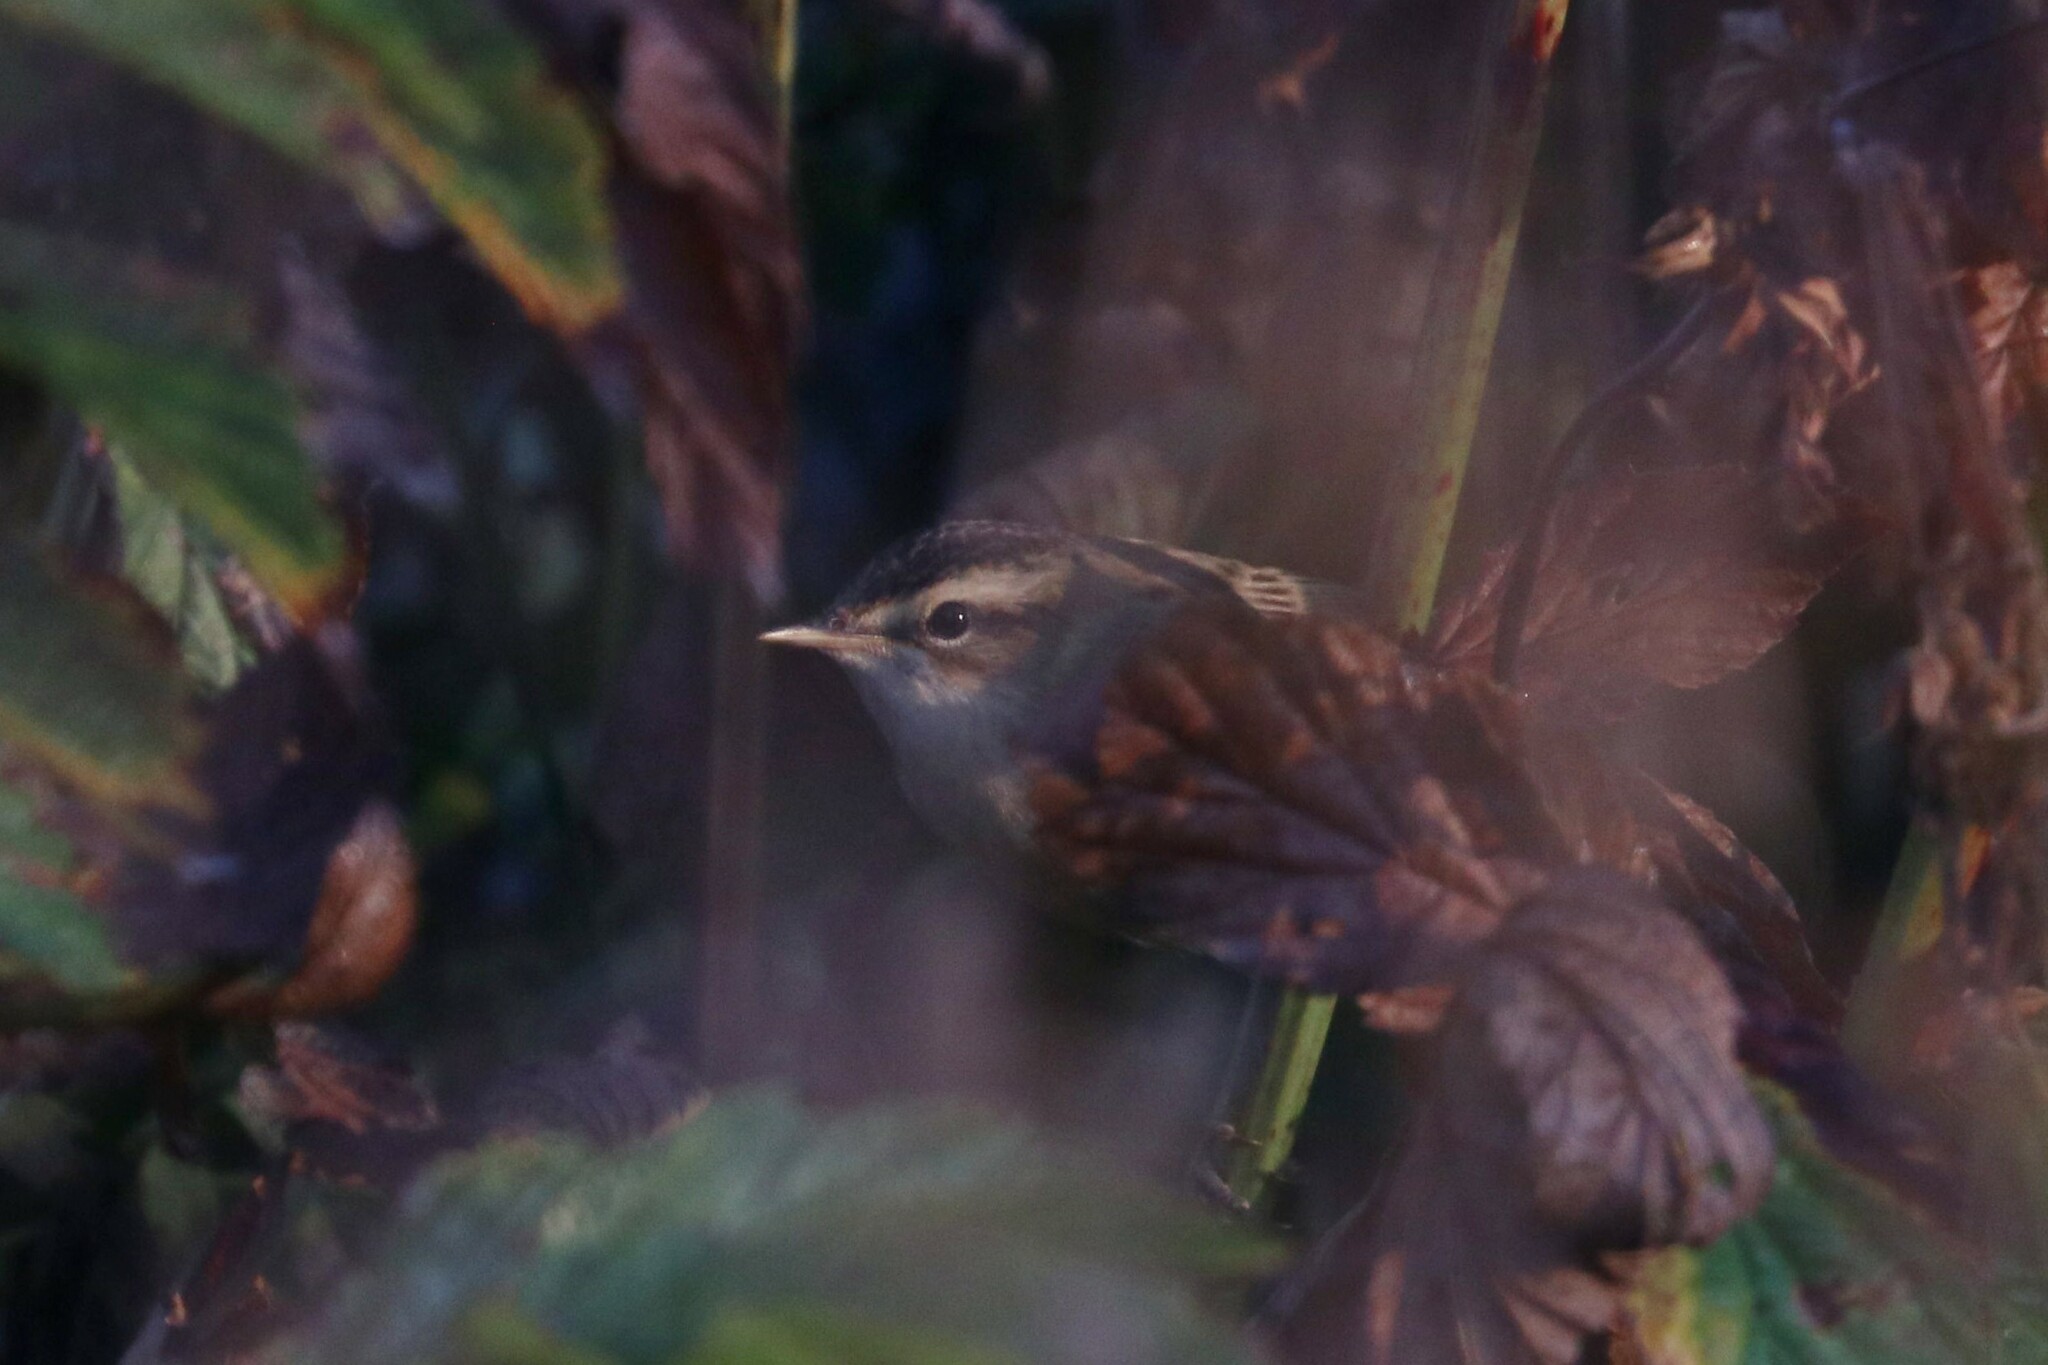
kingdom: Animalia
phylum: Chordata
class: Aves
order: Passeriformes
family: Acrocephalidae
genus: Acrocephalus
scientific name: Acrocephalus schoenobaenus
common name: Sedge warbler
